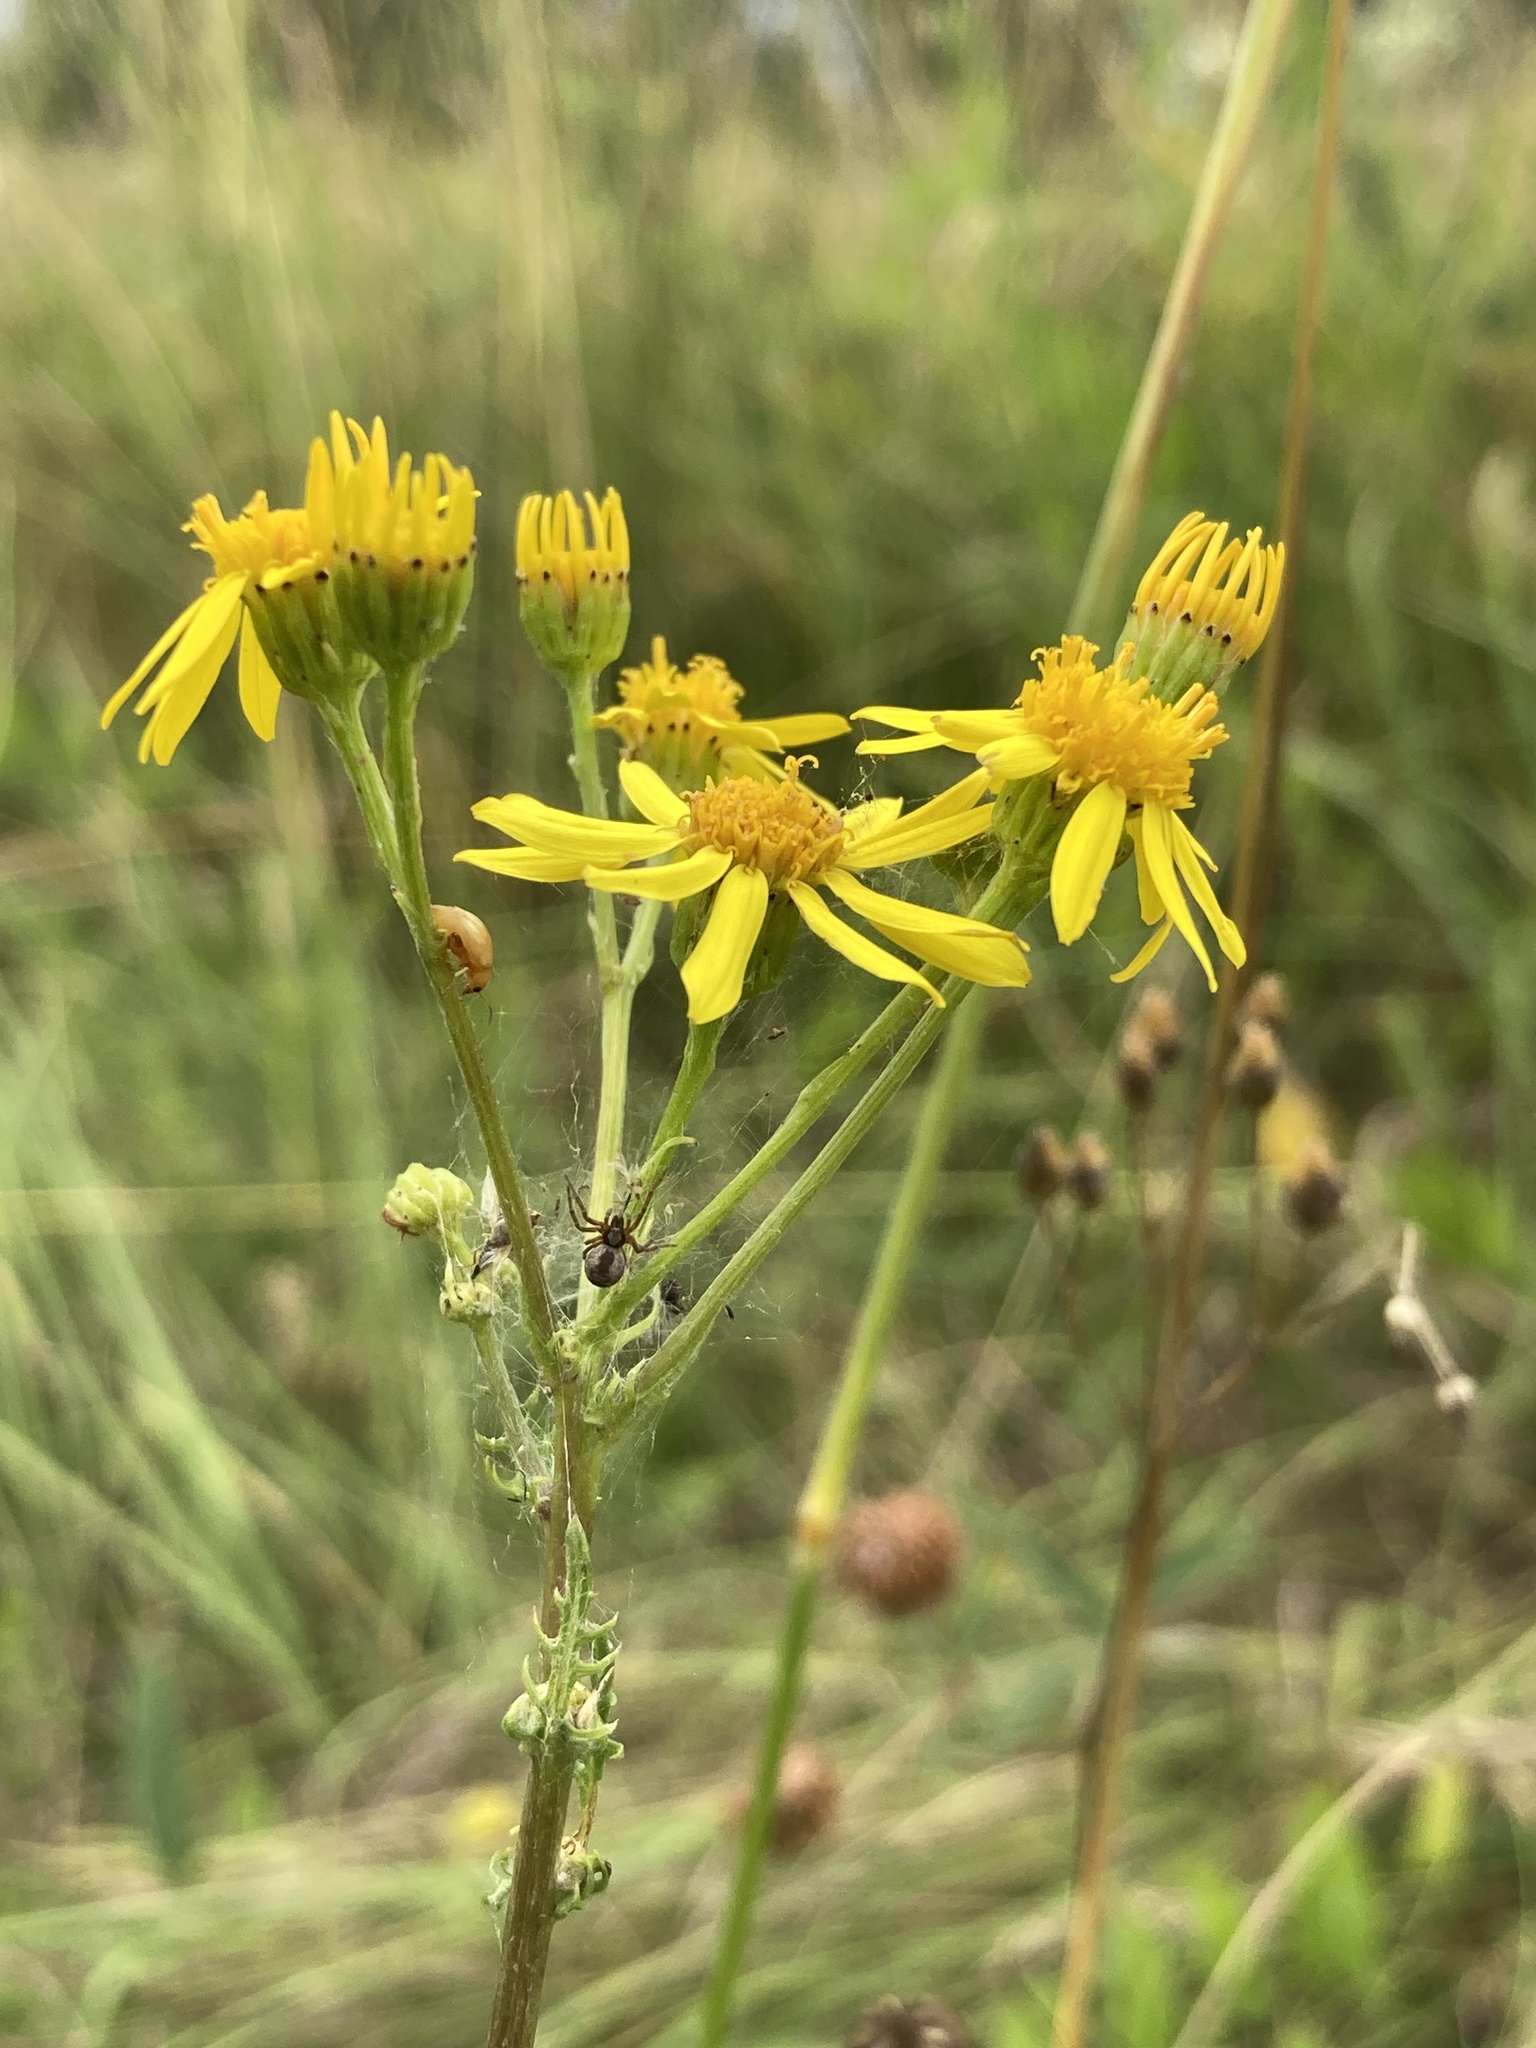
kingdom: Plantae
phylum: Tracheophyta
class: Magnoliopsida
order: Asterales
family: Asteraceae
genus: Jacobaea
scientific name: Jacobaea vulgaris
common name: Stinking willie
